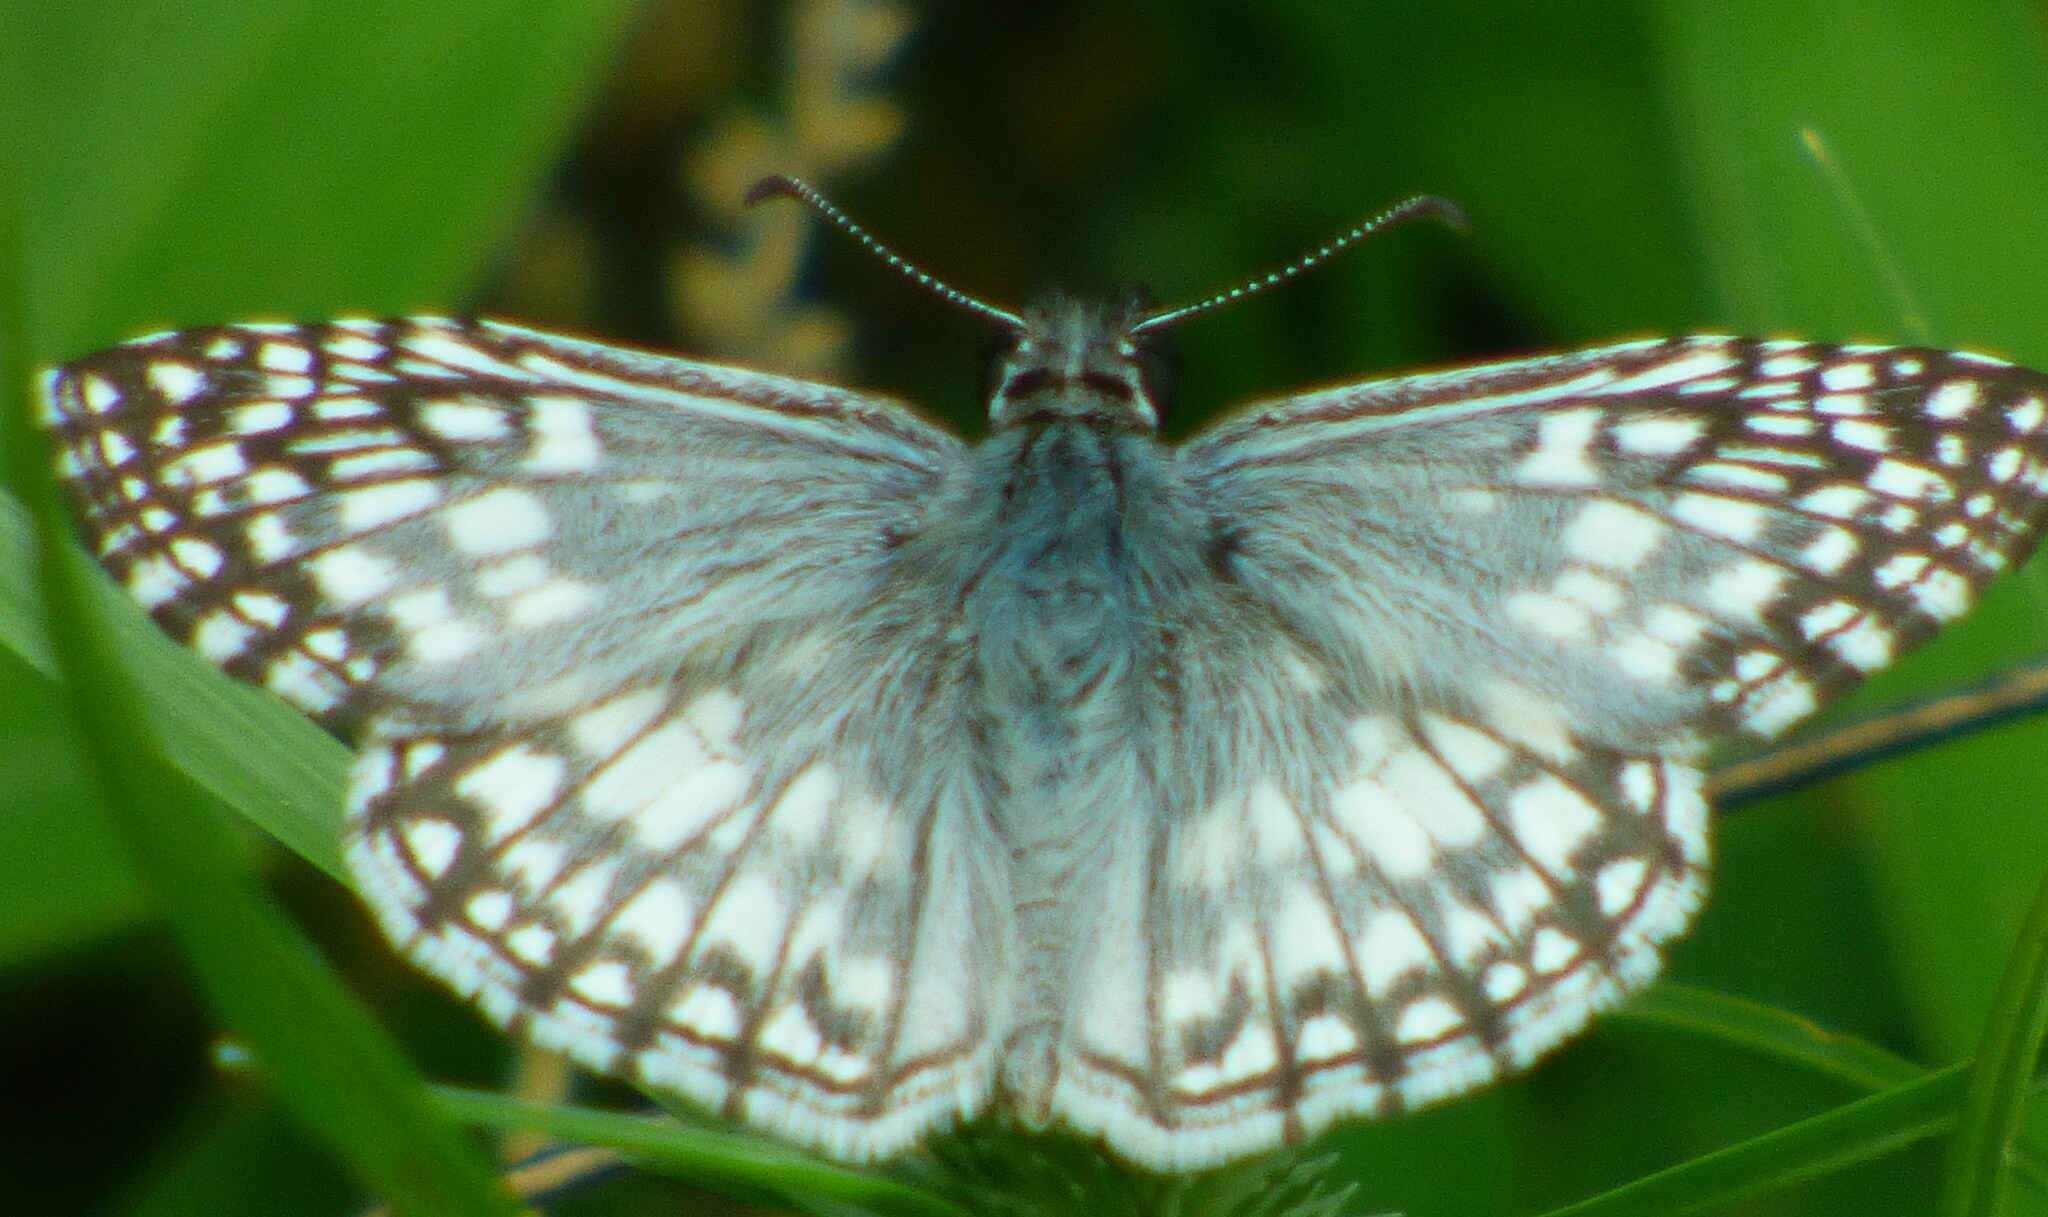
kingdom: Animalia
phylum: Arthropoda
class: Insecta
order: Lepidoptera
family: Hesperiidae
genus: Pyrgus
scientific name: Pyrgus oileus
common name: Tropical checkered-skipper
